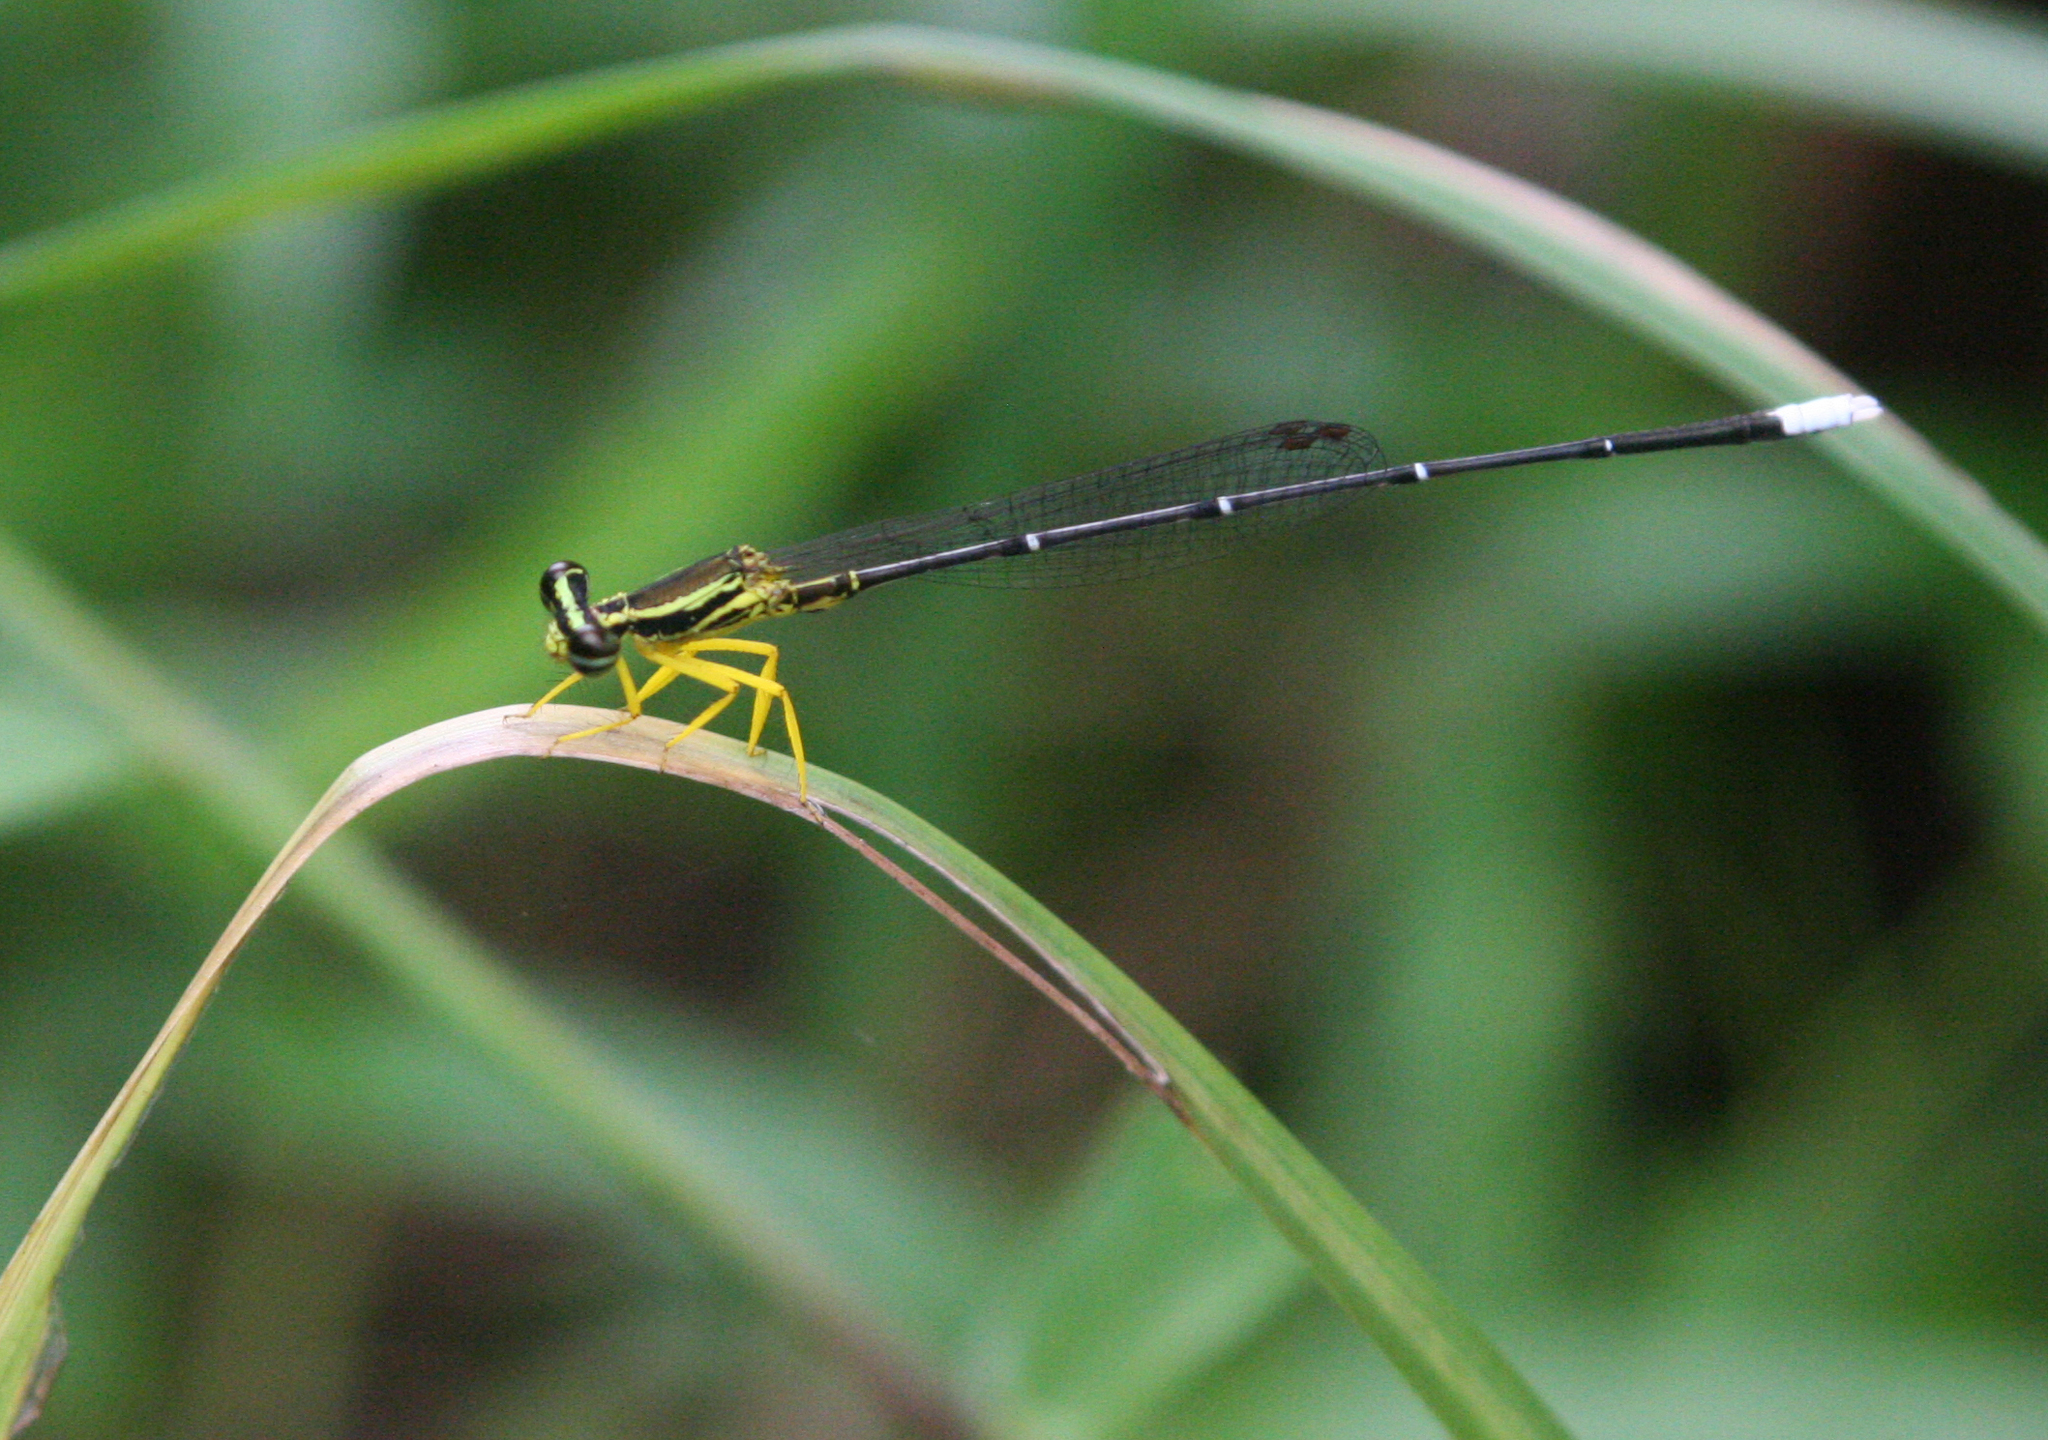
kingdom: Animalia
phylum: Arthropoda
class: Insecta
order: Odonata
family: Platycnemididae
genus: Copera
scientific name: Copera marginipes
